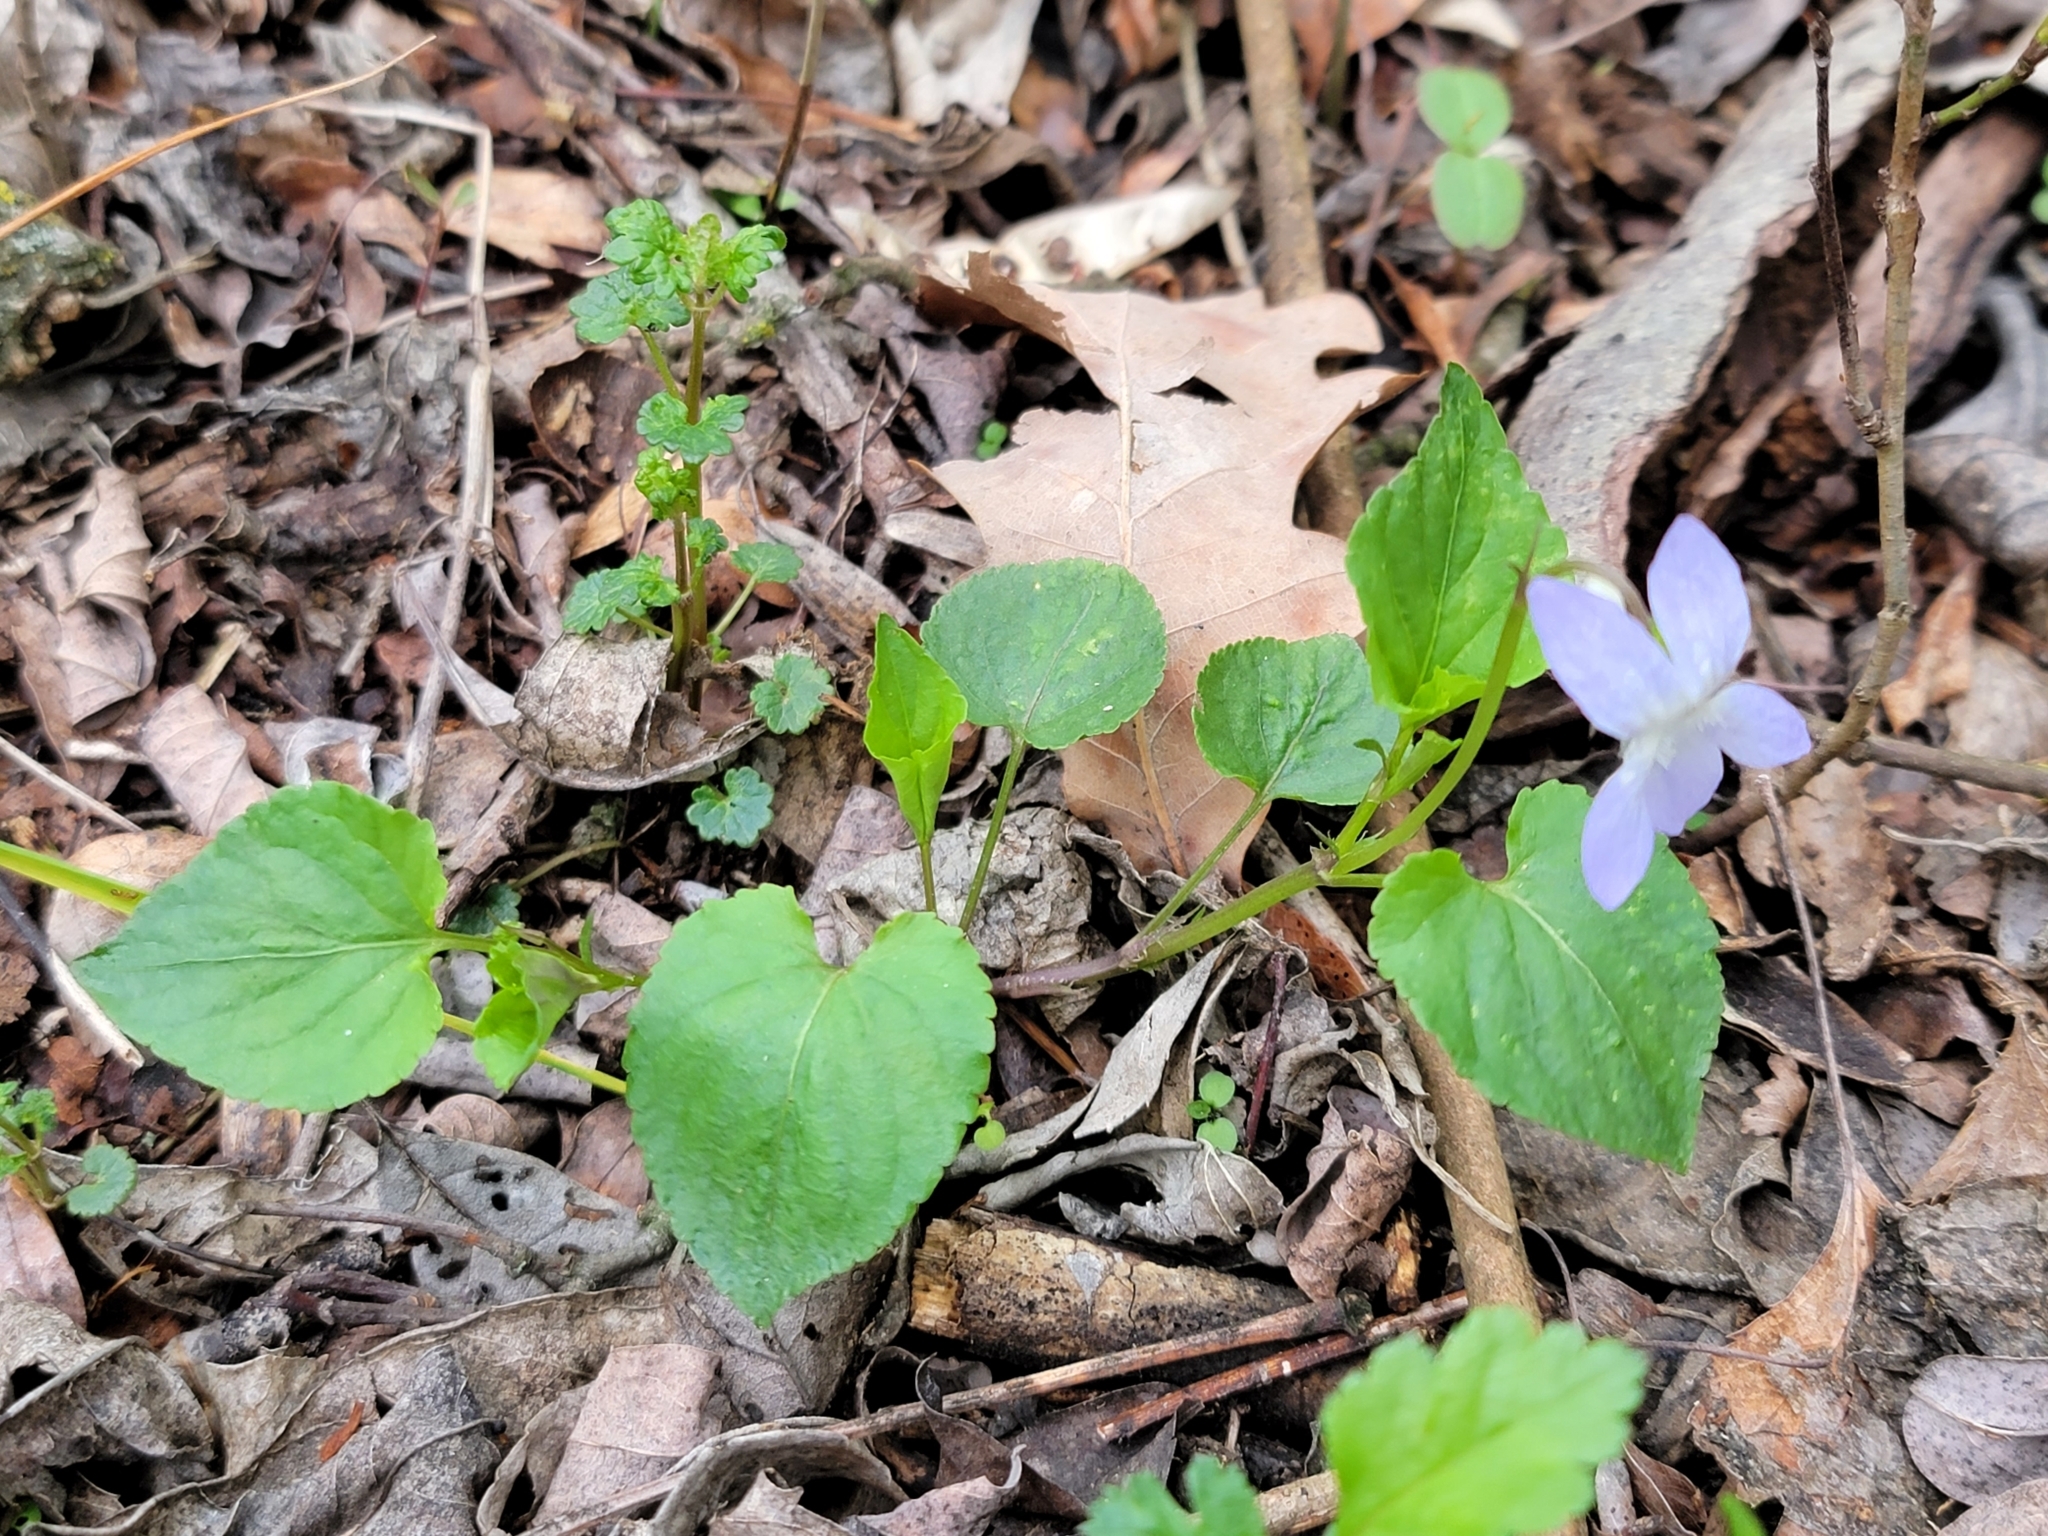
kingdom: Plantae
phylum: Tracheophyta
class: Magnoliopsida
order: Malpighiales
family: Violaceae
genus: Viola
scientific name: Viola riviniana
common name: Common dog-violet
